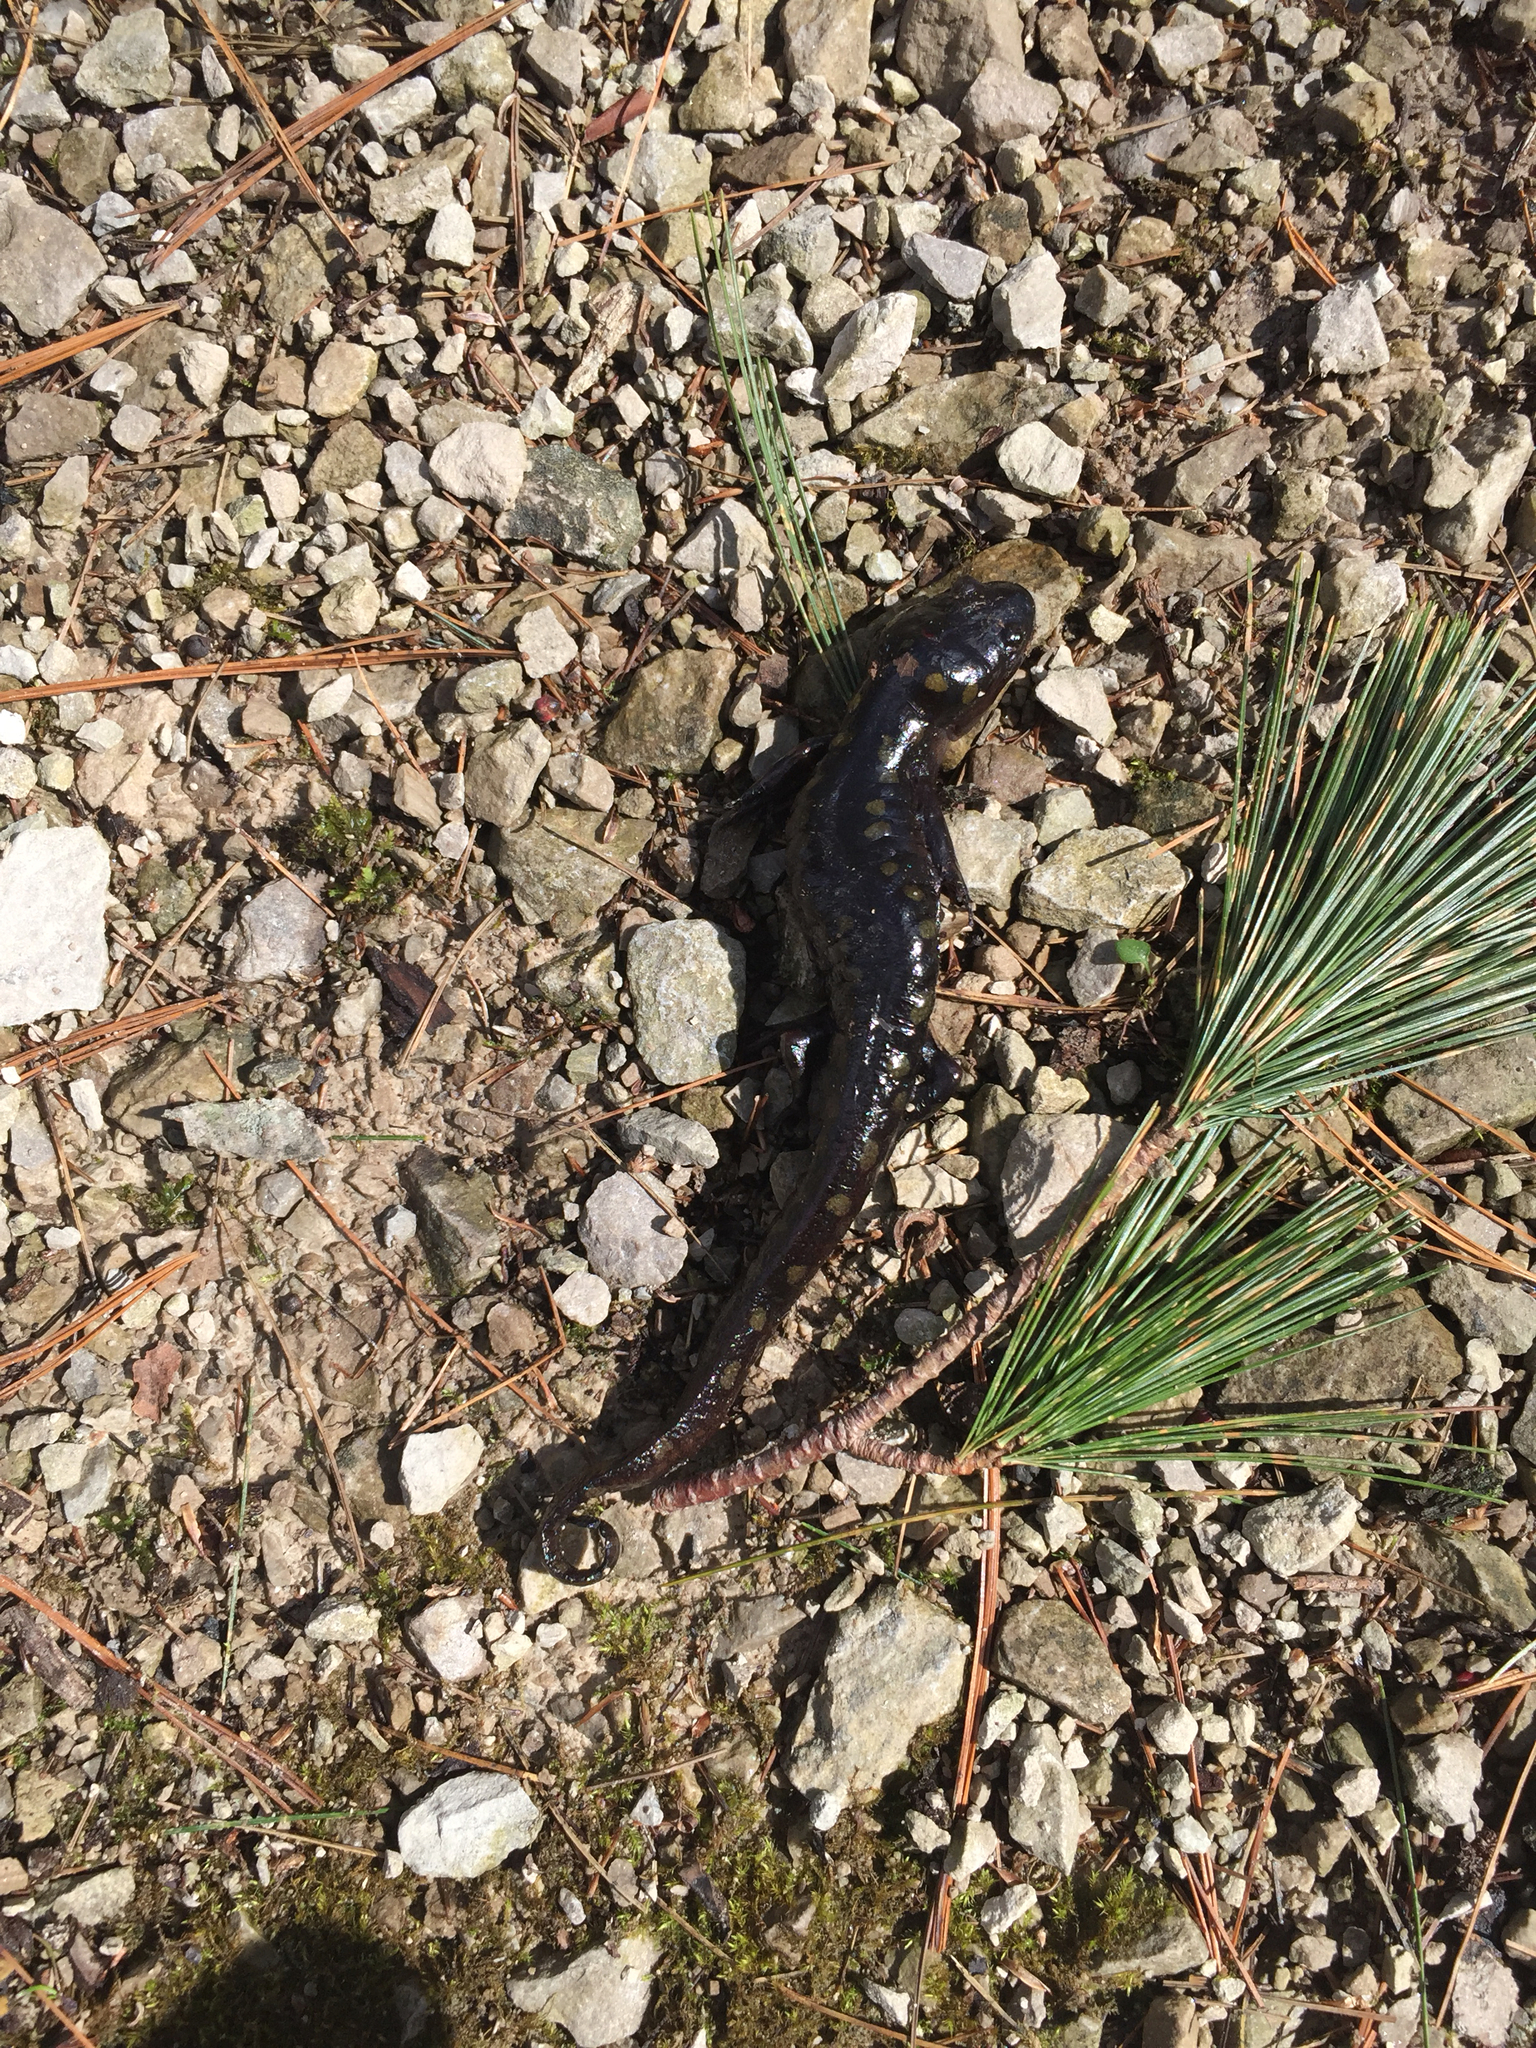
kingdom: Animalia
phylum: Chordata
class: Amphibia
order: Caudata
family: Ambystomatidae
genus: Ambystoma
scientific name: Ambystoma maculatum
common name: Spotted salamander
